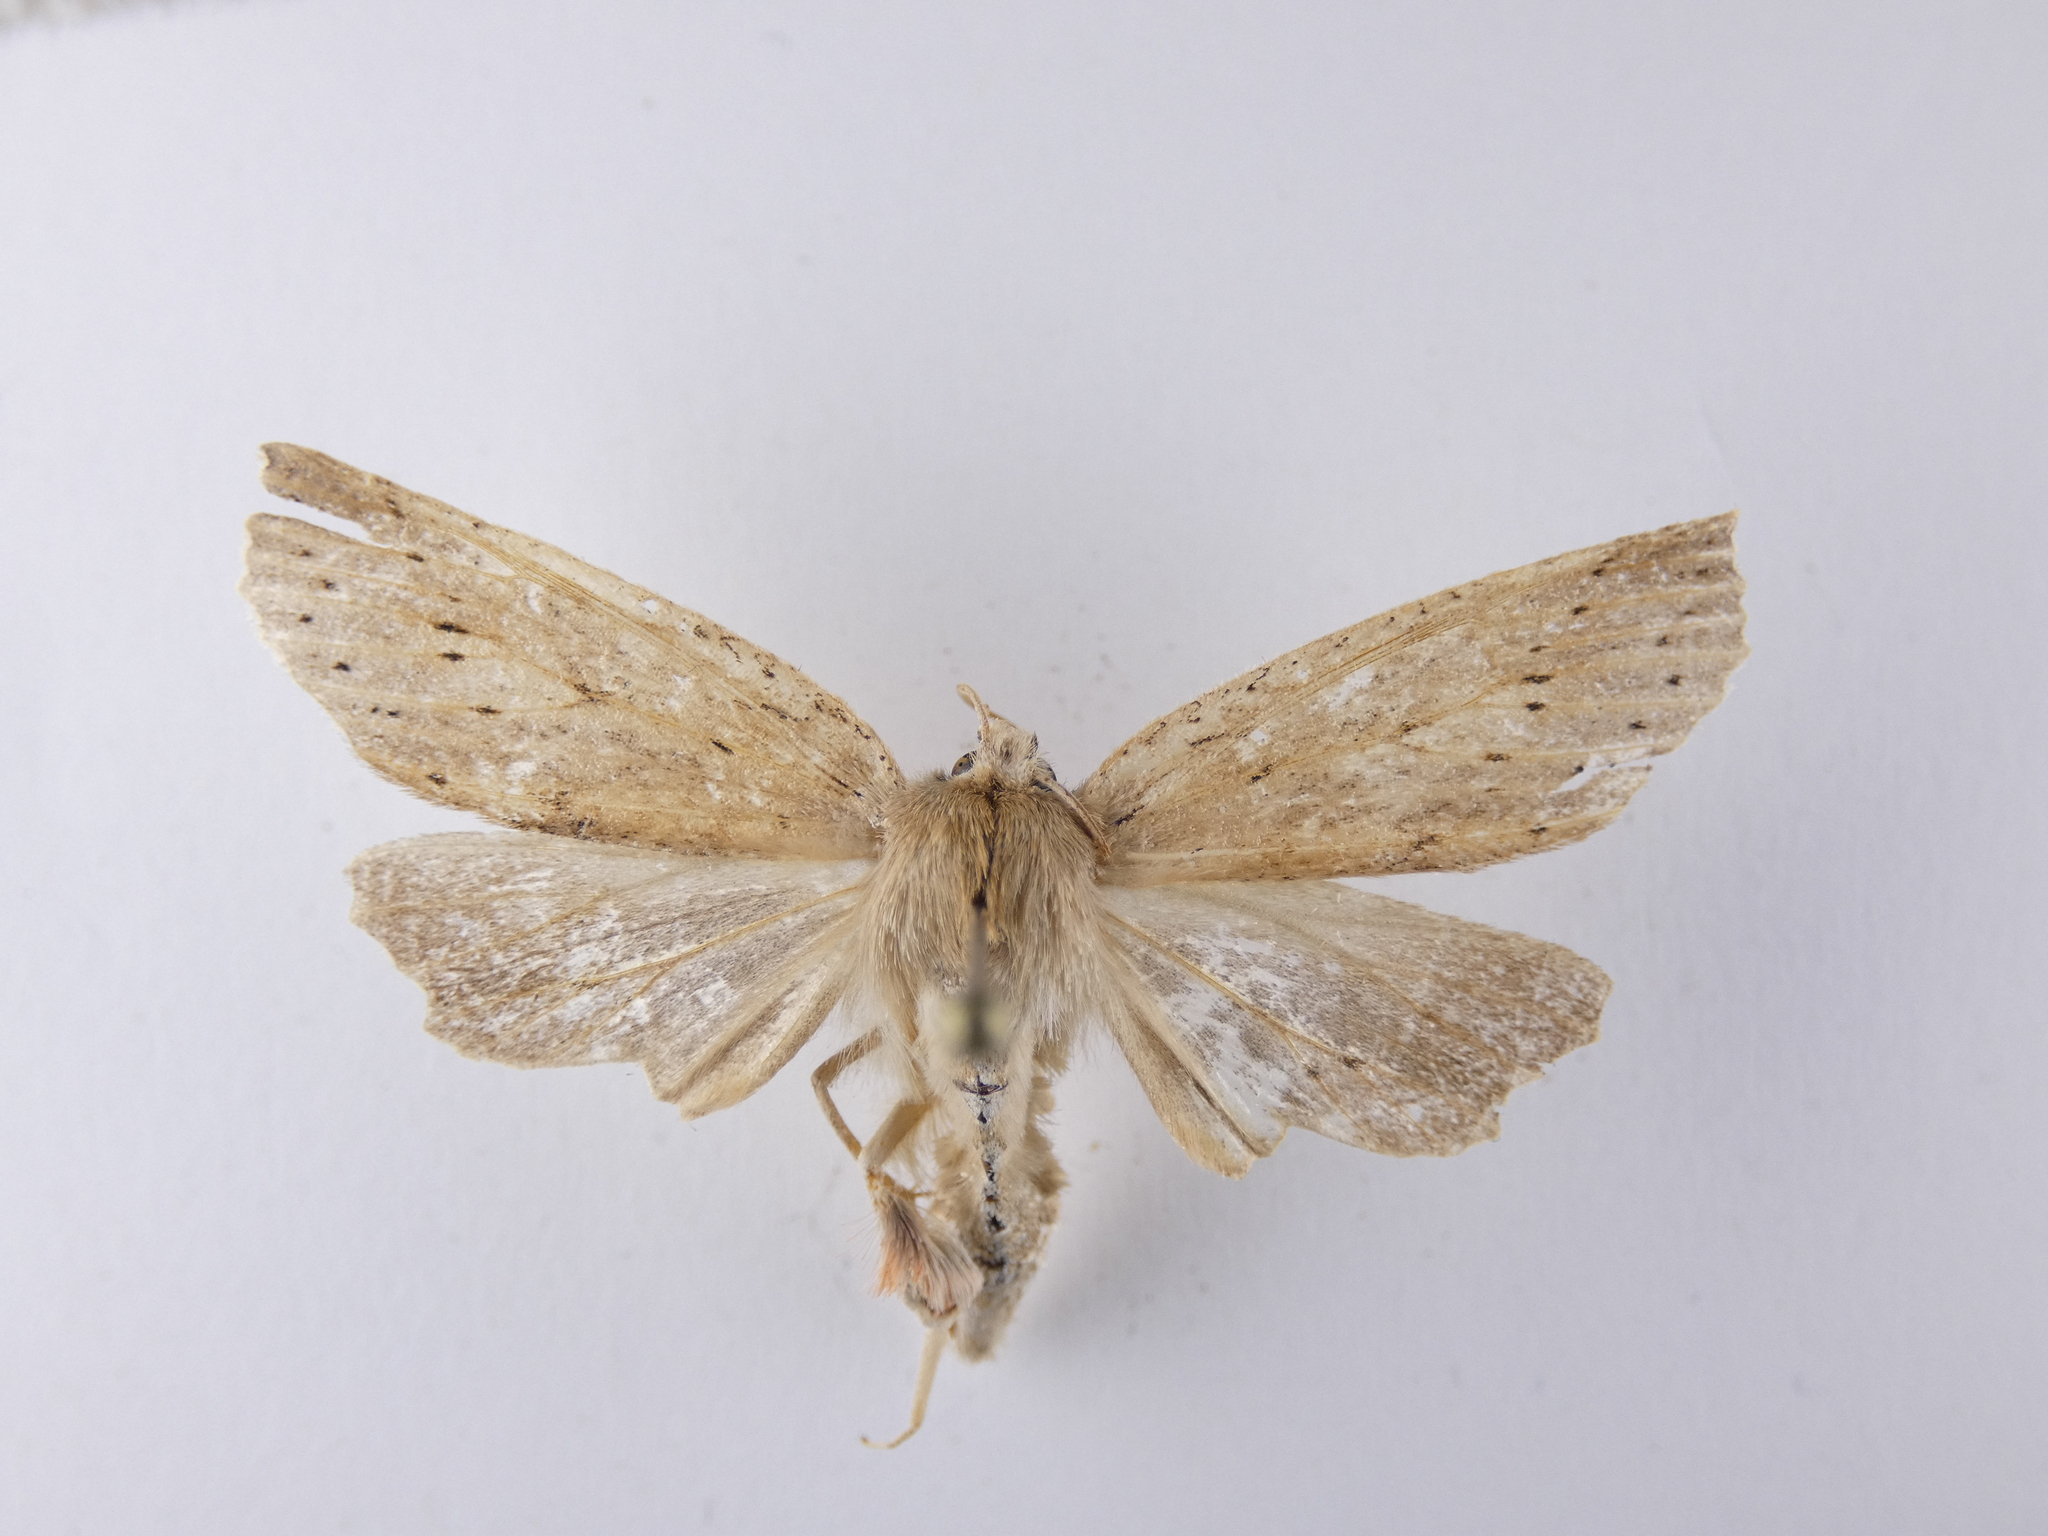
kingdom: Animalia
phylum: Arthropoda
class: Insecta
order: Lepidoptera
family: Geometridae
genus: Declana
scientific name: Declana leptomera
